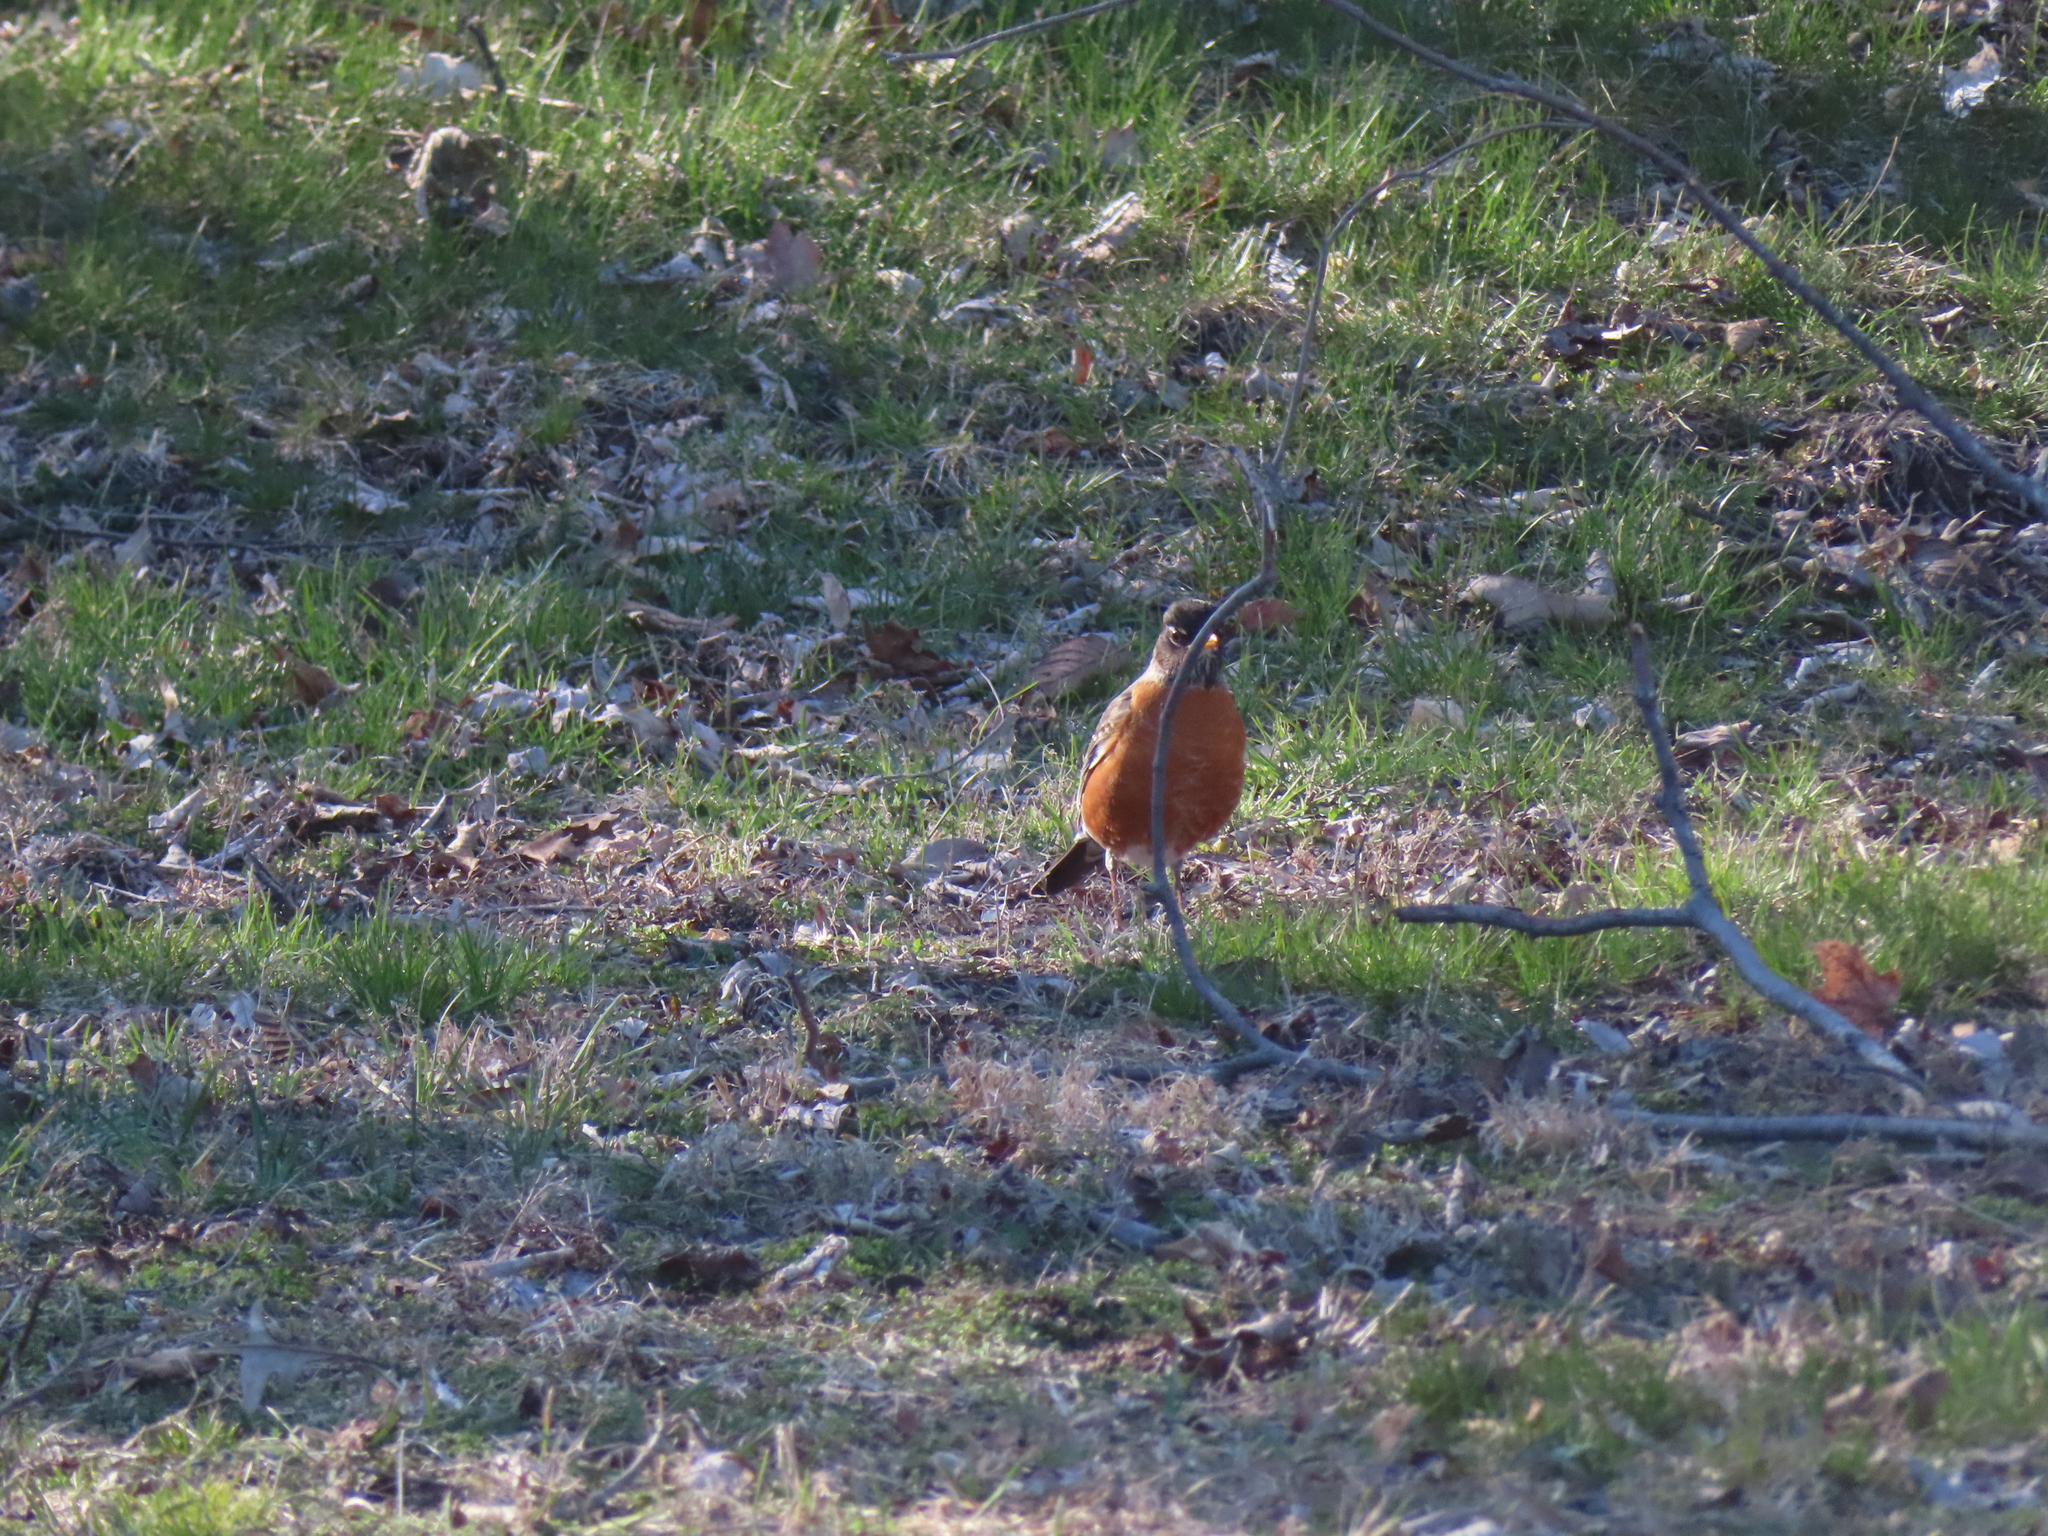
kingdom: Animalia
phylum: Chordata
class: Aves
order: Passeriformes
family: Turdidae
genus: Turdus
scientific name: Turdus migratorius
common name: American robin
